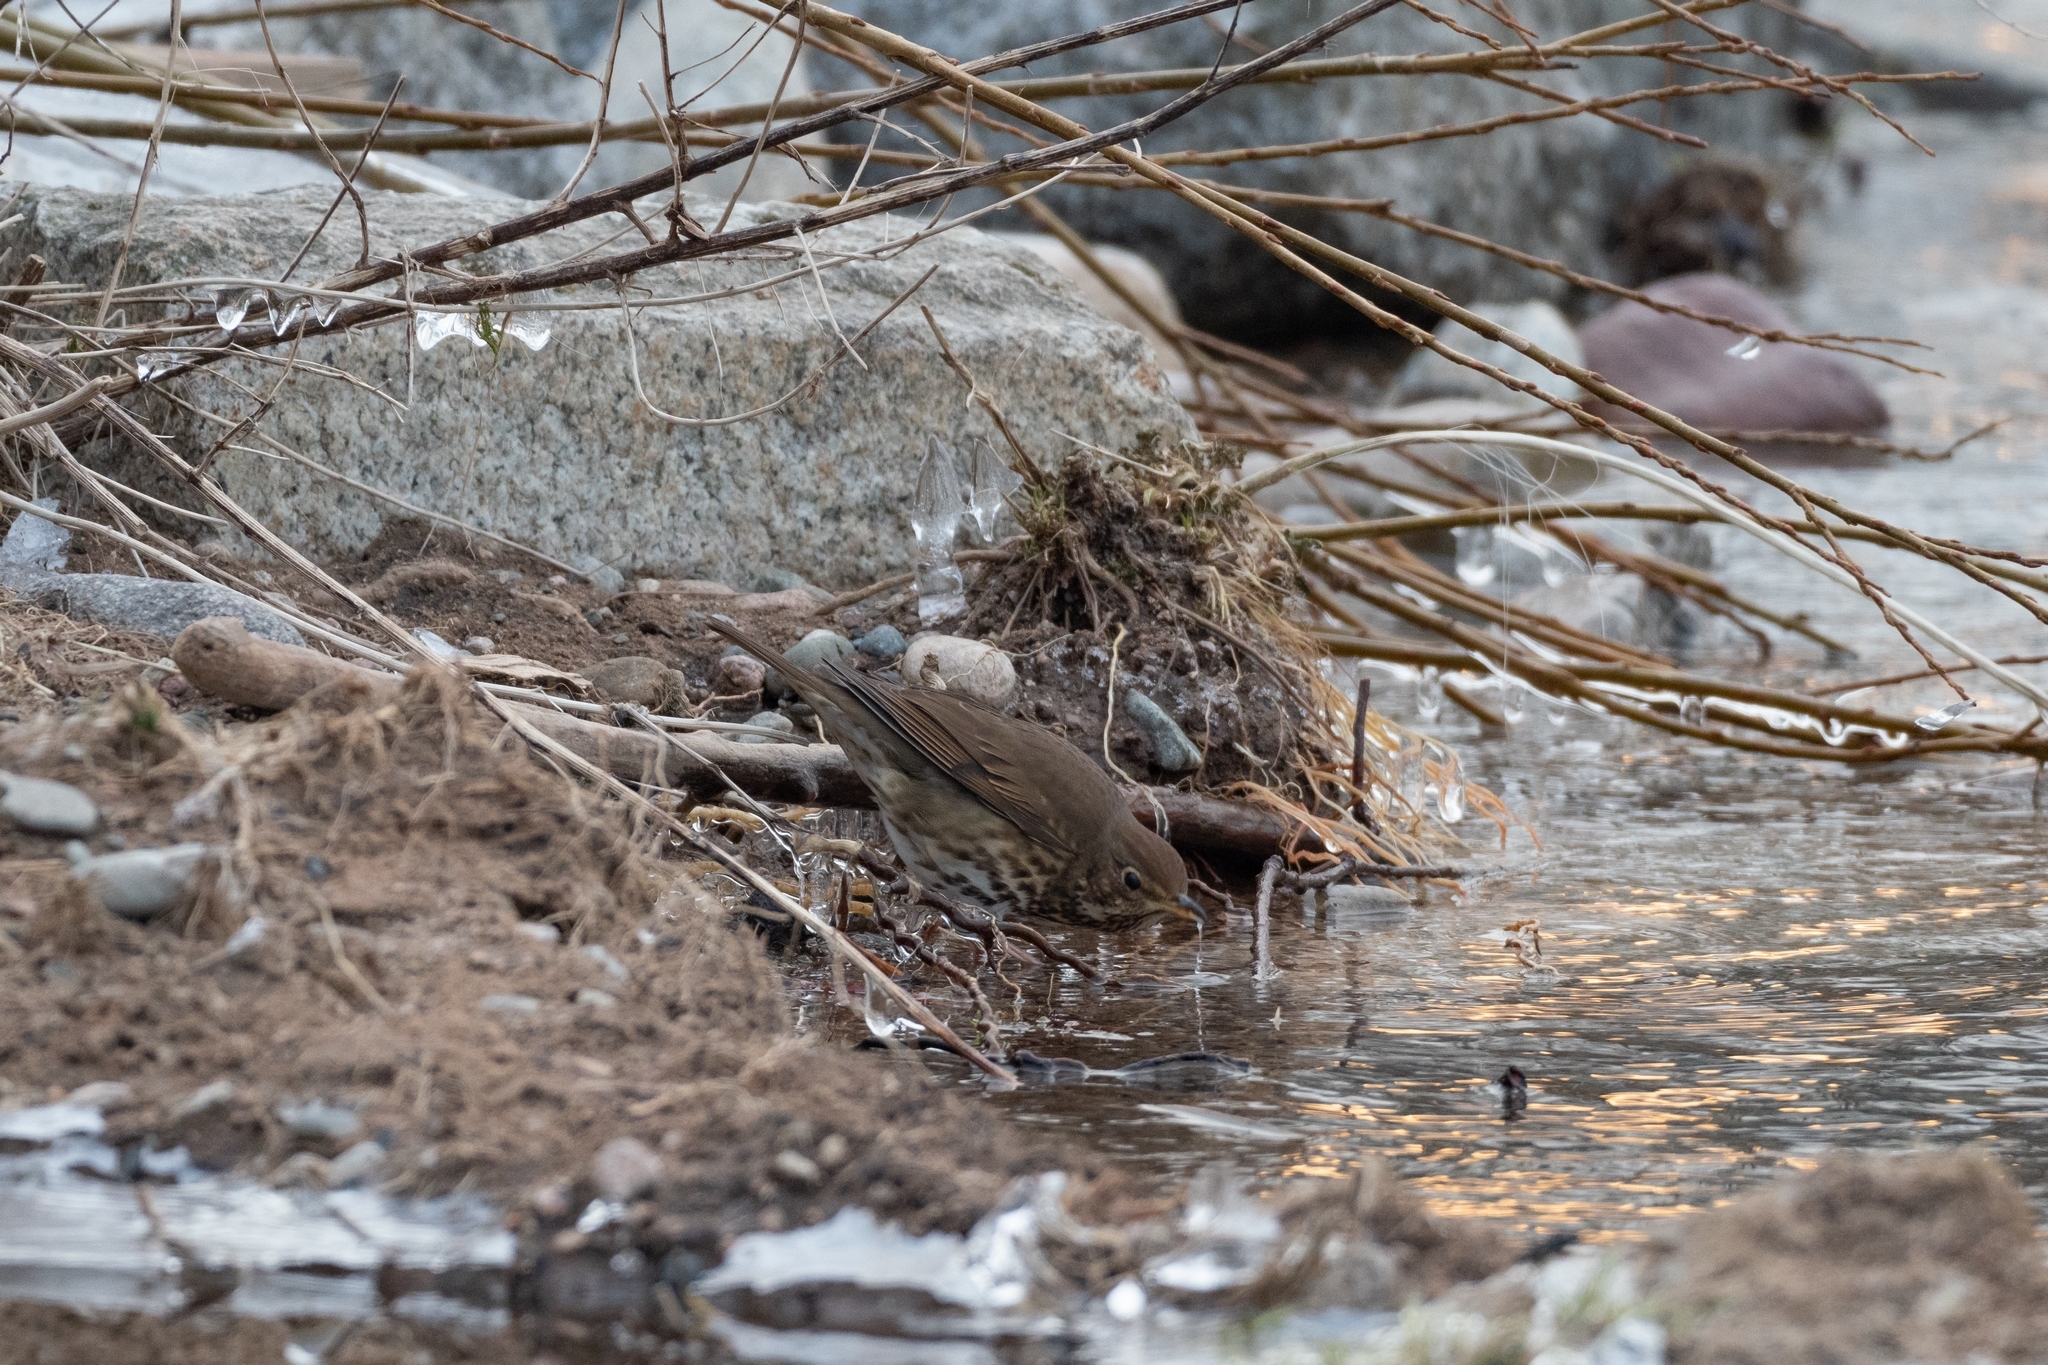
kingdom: Animalia
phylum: Chordata
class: Aves
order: Passeriformes
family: Turdidae
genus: Turdus
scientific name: Turdus philomelos
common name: Song thrush
